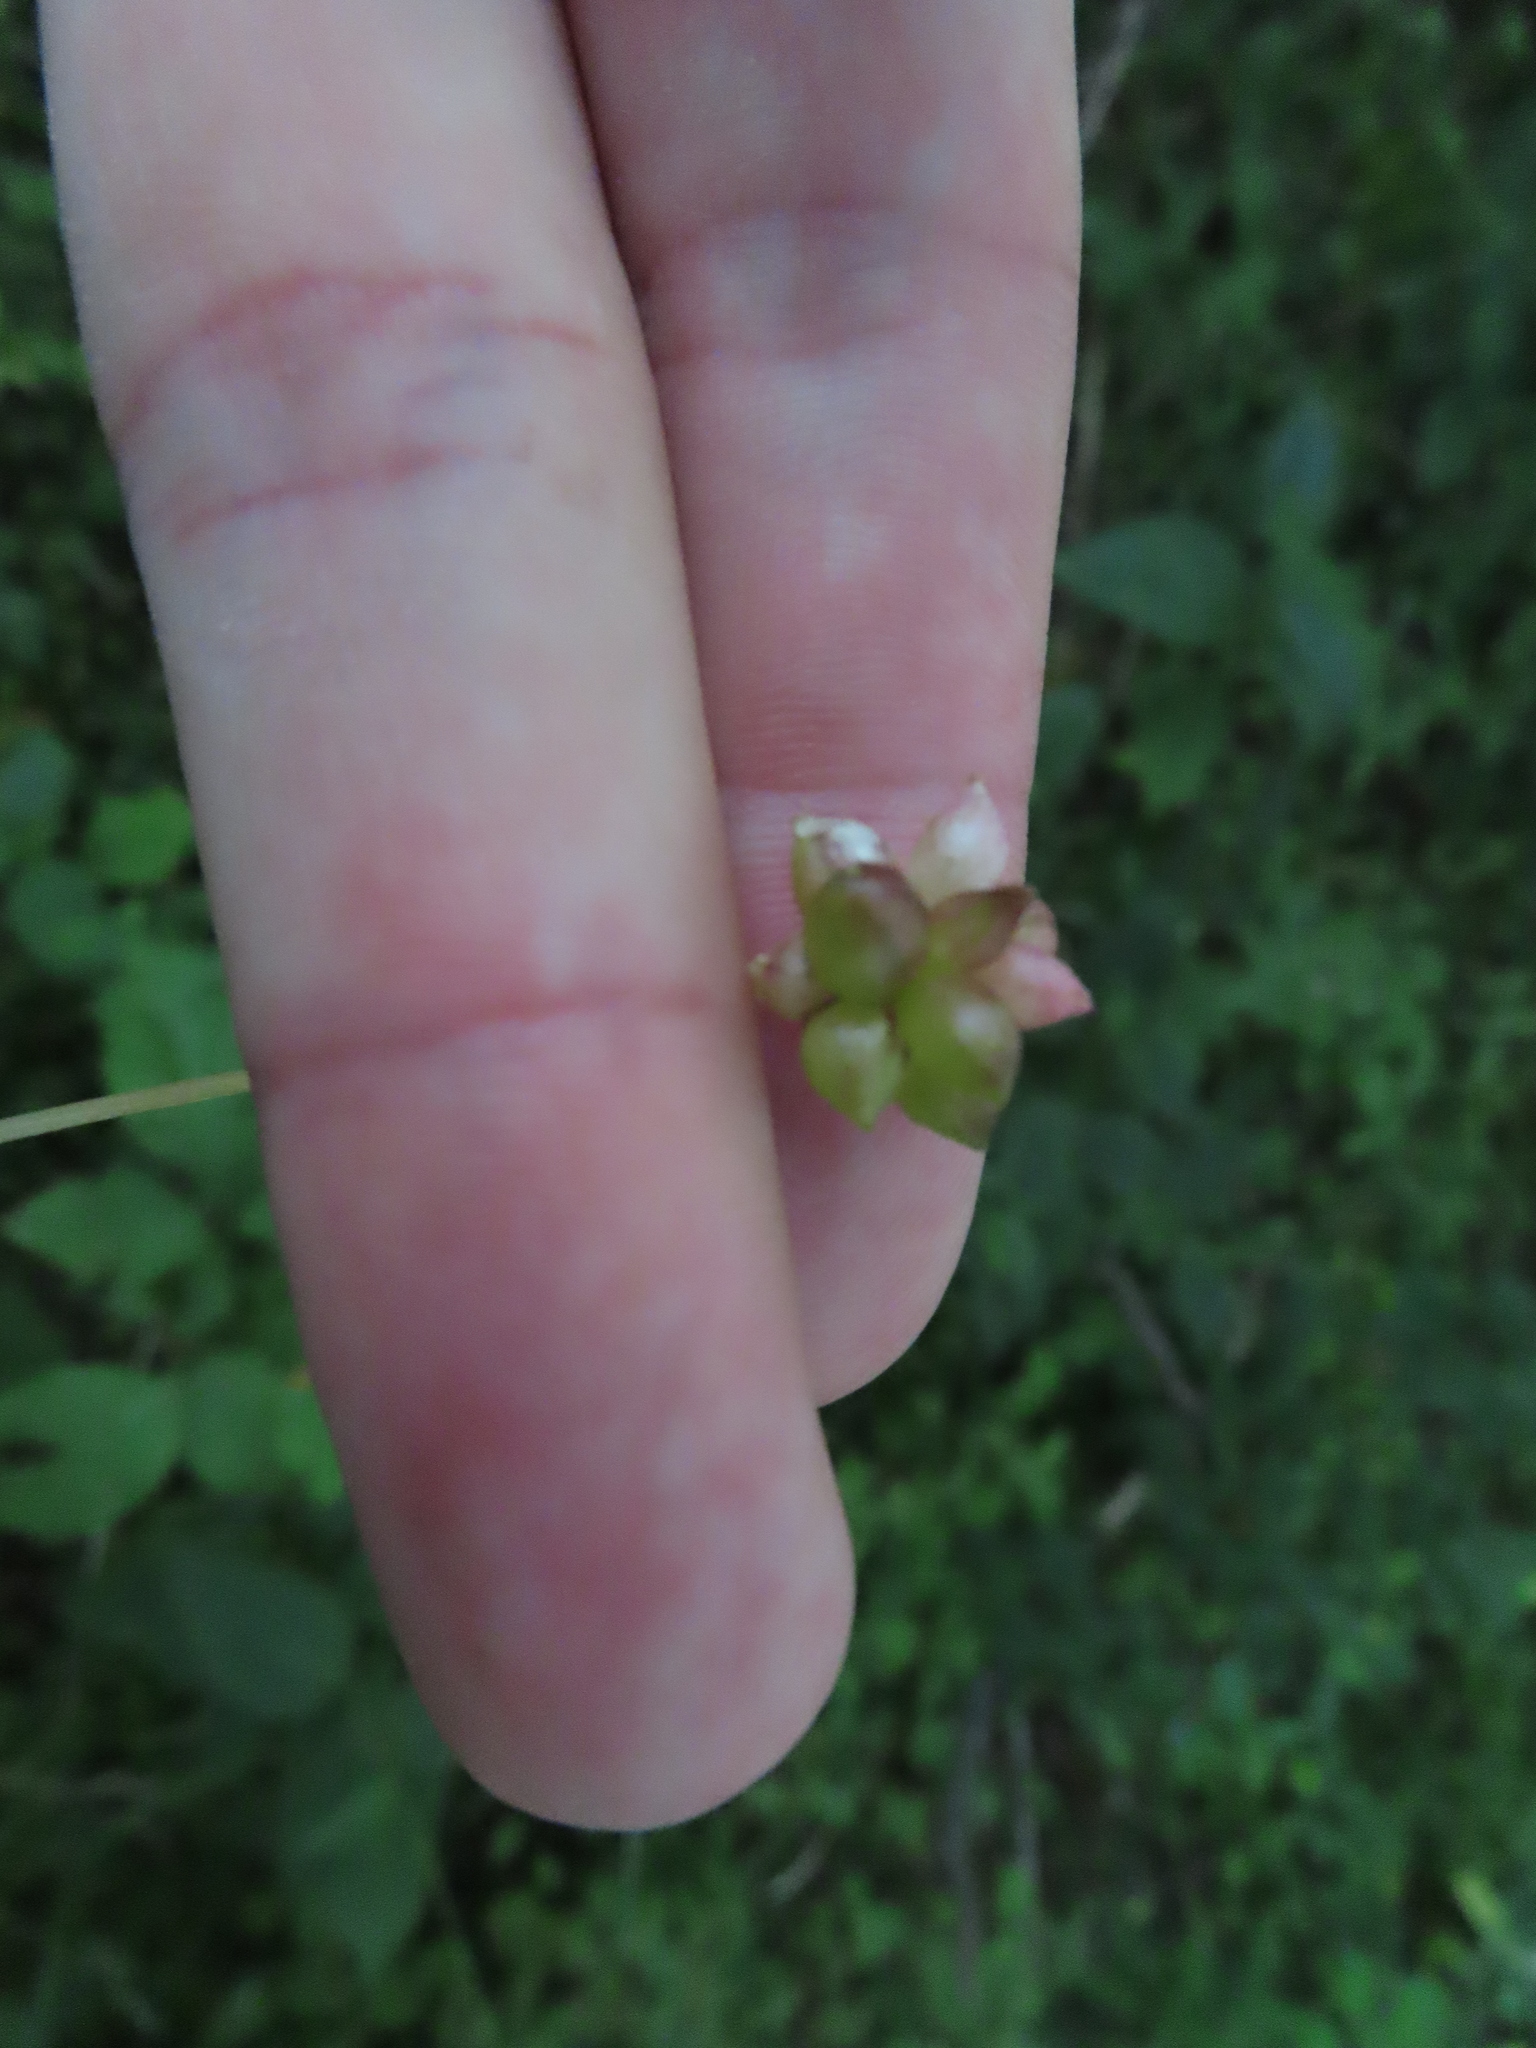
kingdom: Plantae
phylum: Tracheophyta
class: Liliopsida
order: Asparagales
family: Amaryllidaceae
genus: Allium
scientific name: Allium canadense
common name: Meadow garlic
